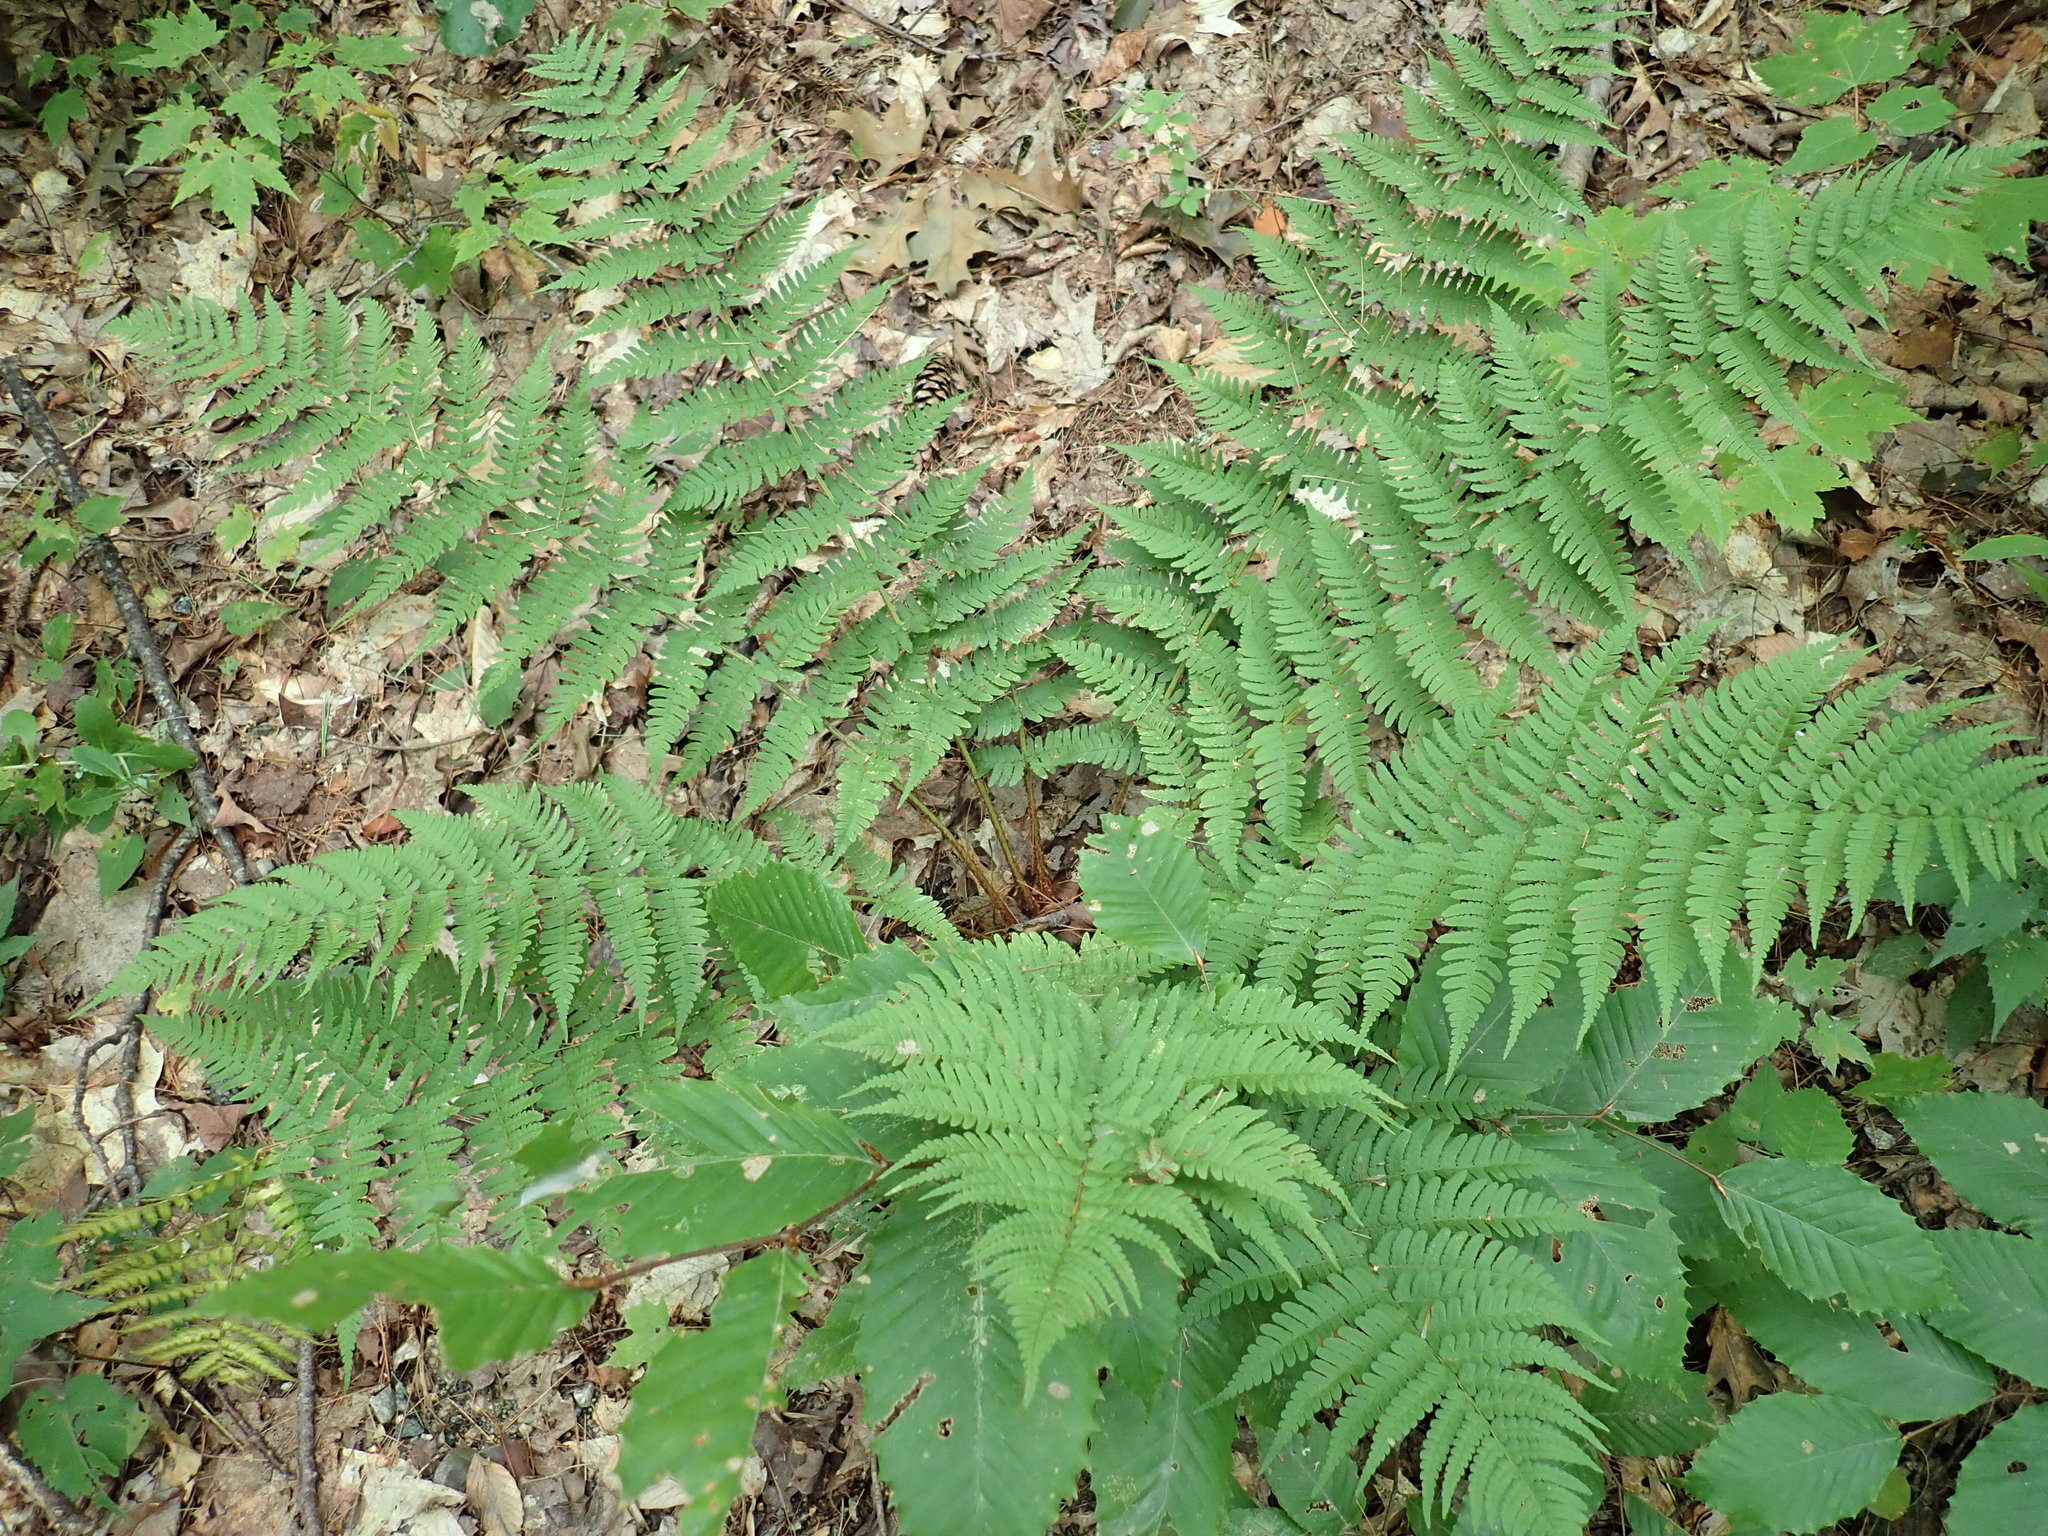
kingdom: Plantae
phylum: Tracheophyta
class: Polypodiopsida
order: Polypodiales
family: Dryopteridaceae
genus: Dryopteris
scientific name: Dryopteris marginalis
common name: Marginal wood fern
